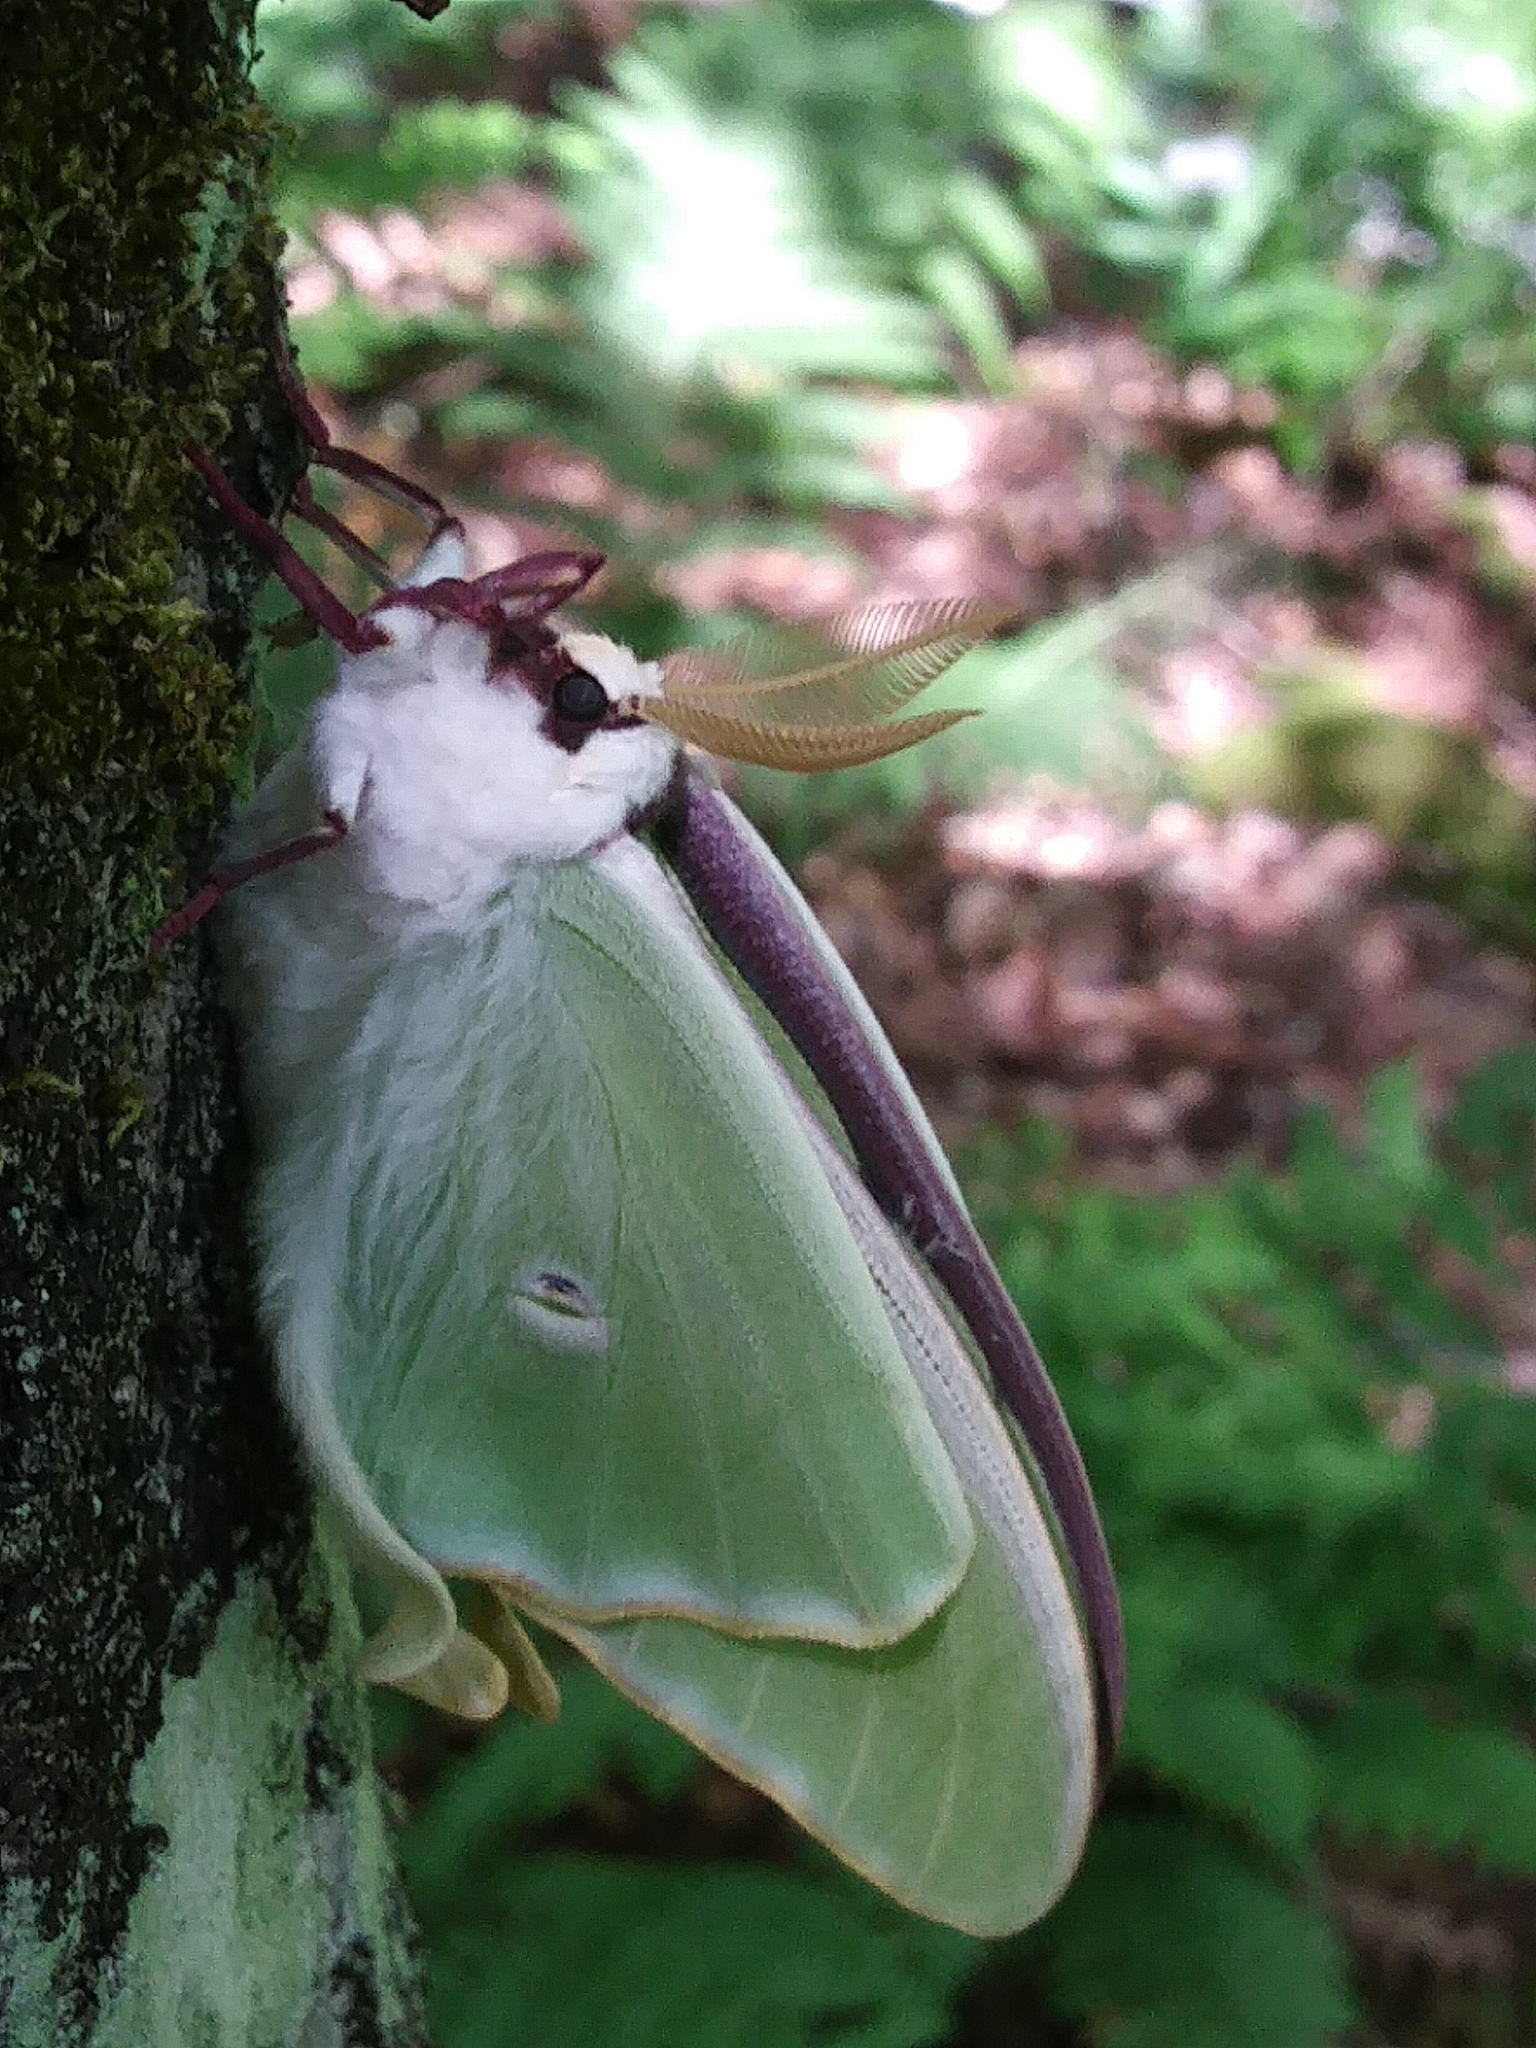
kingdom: Animalia
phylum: Arthropoda
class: Insecta
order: Lepidoptera
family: Saturniidae
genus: Actias
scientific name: Actias luna
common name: Luna moth
